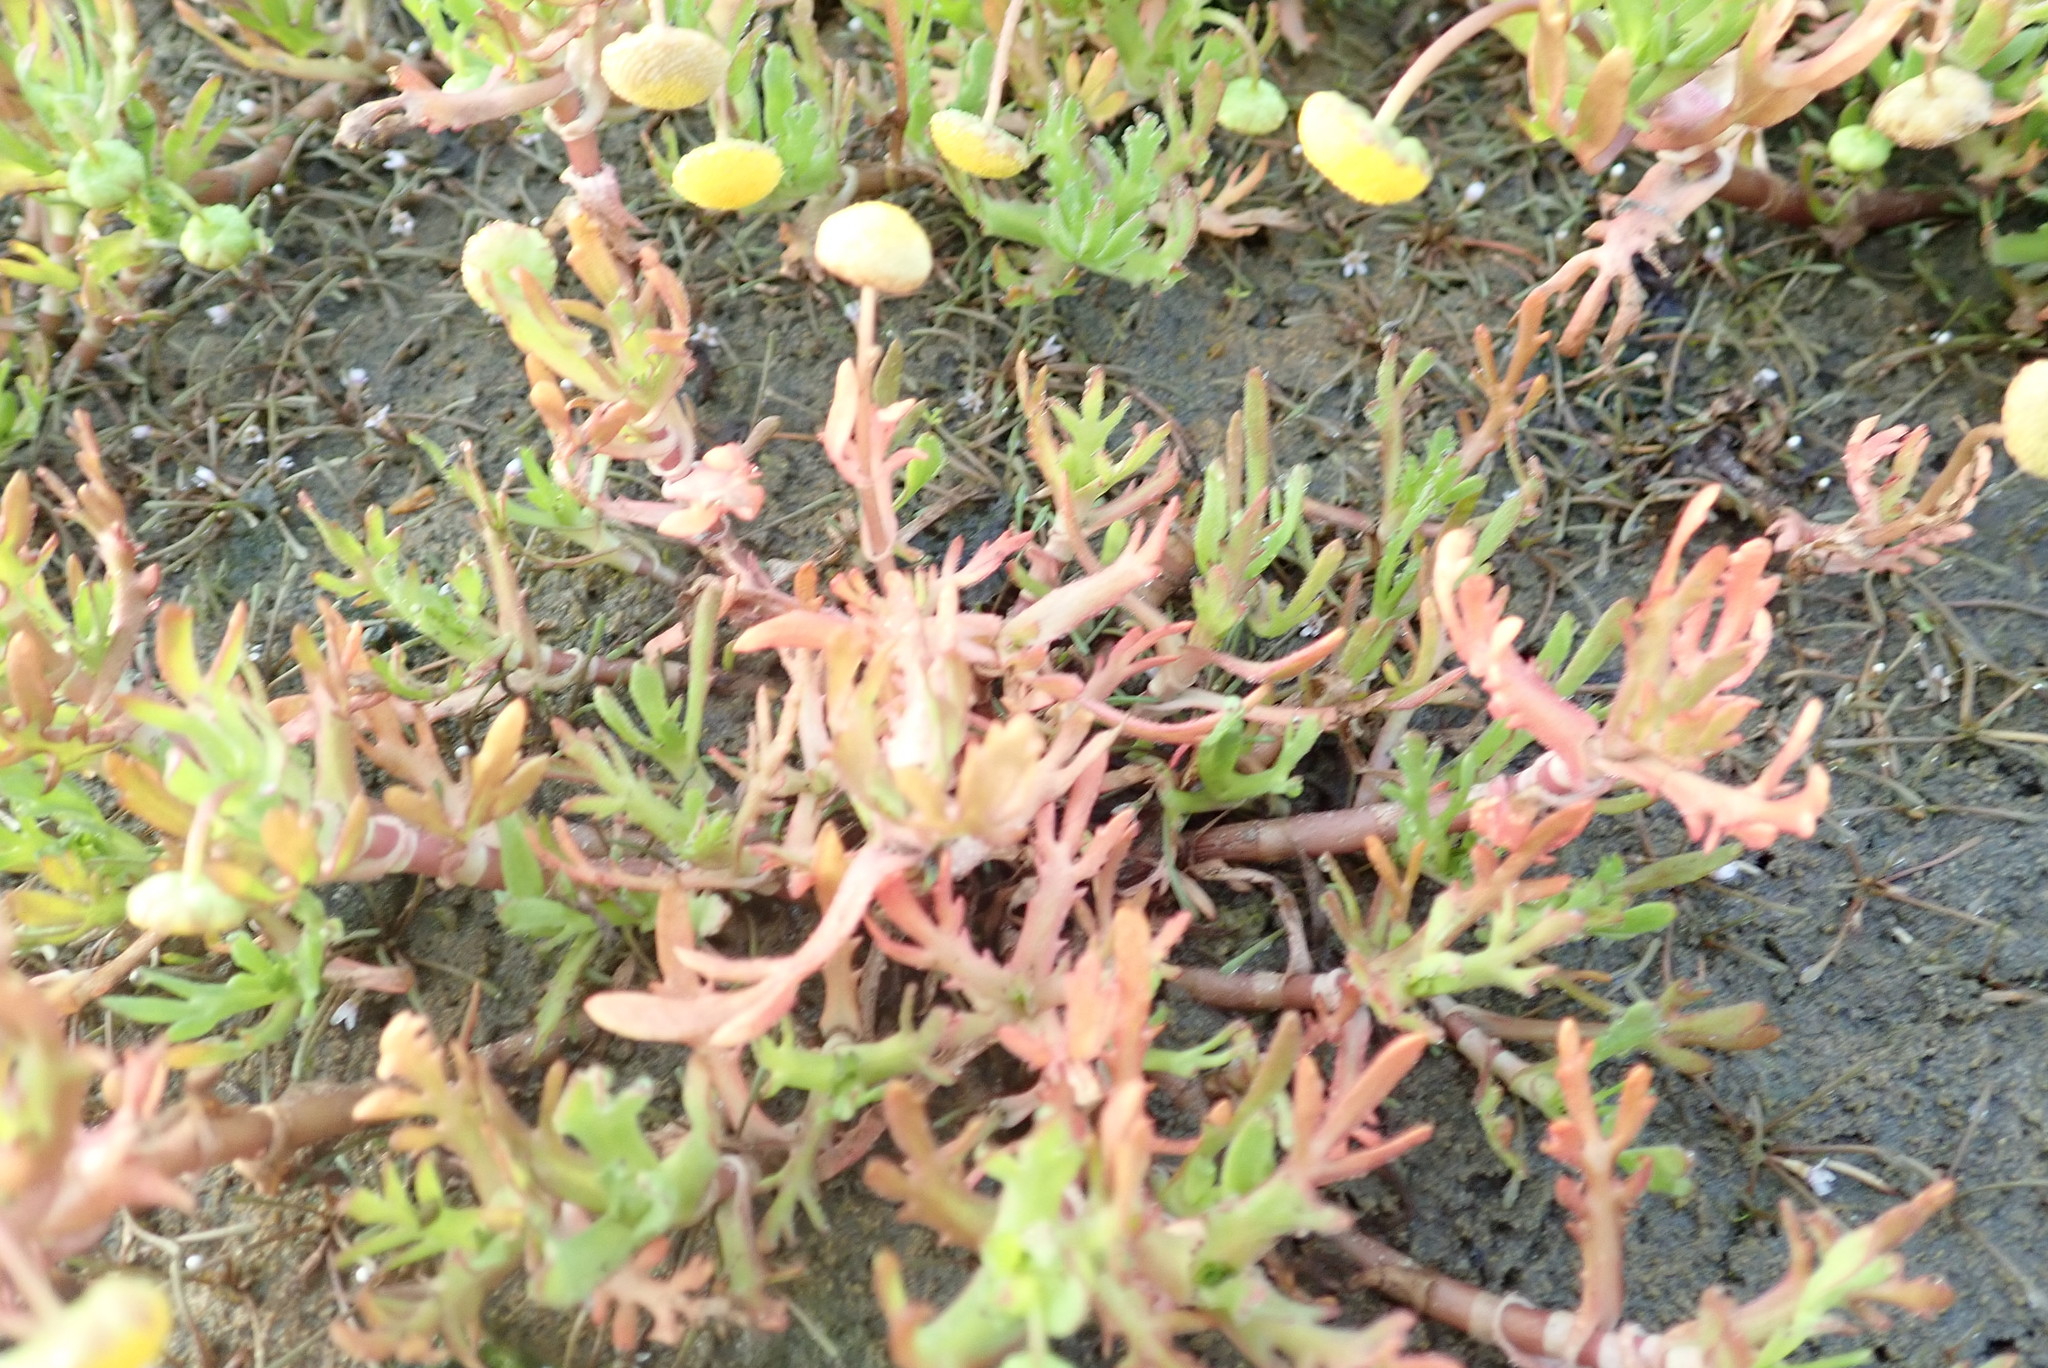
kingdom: Plantae
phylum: Tracheophyta
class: Magnoliopsida
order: Asterales
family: Asteraceae
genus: Cotula
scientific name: Cotula coronopifolia
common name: Buttonweed
